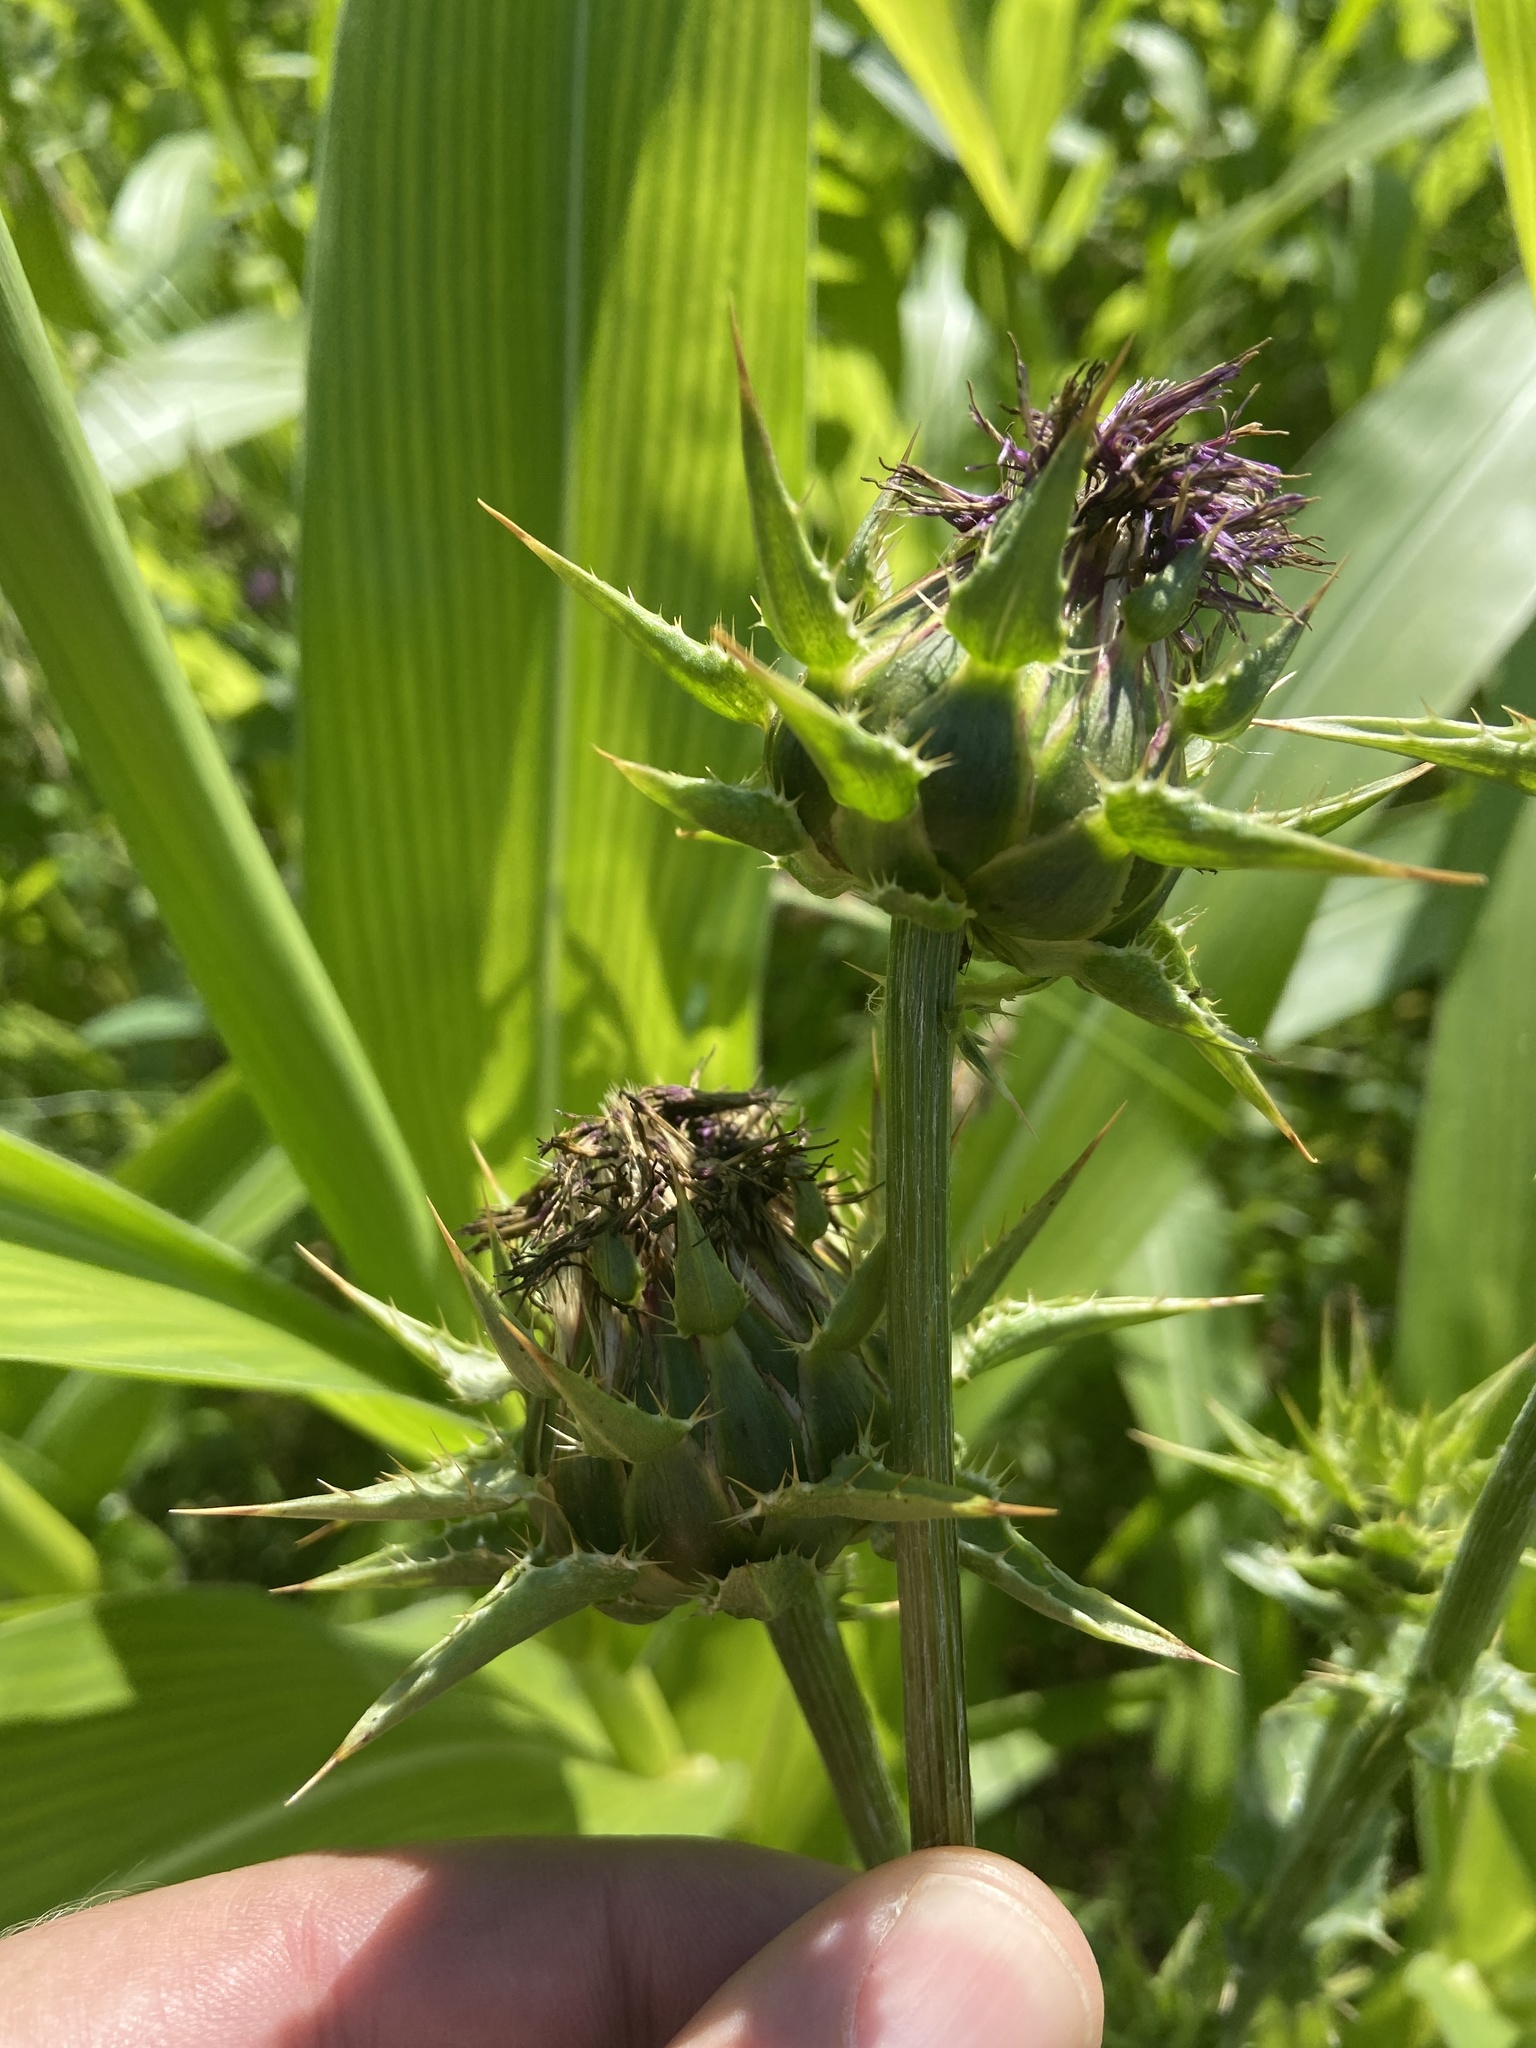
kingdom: Plantae
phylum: Tracheophyta
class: Magnoliopsida
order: Asterales
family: Asteraceae
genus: Silybum
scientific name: Silybum marianum
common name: Milk thistle
